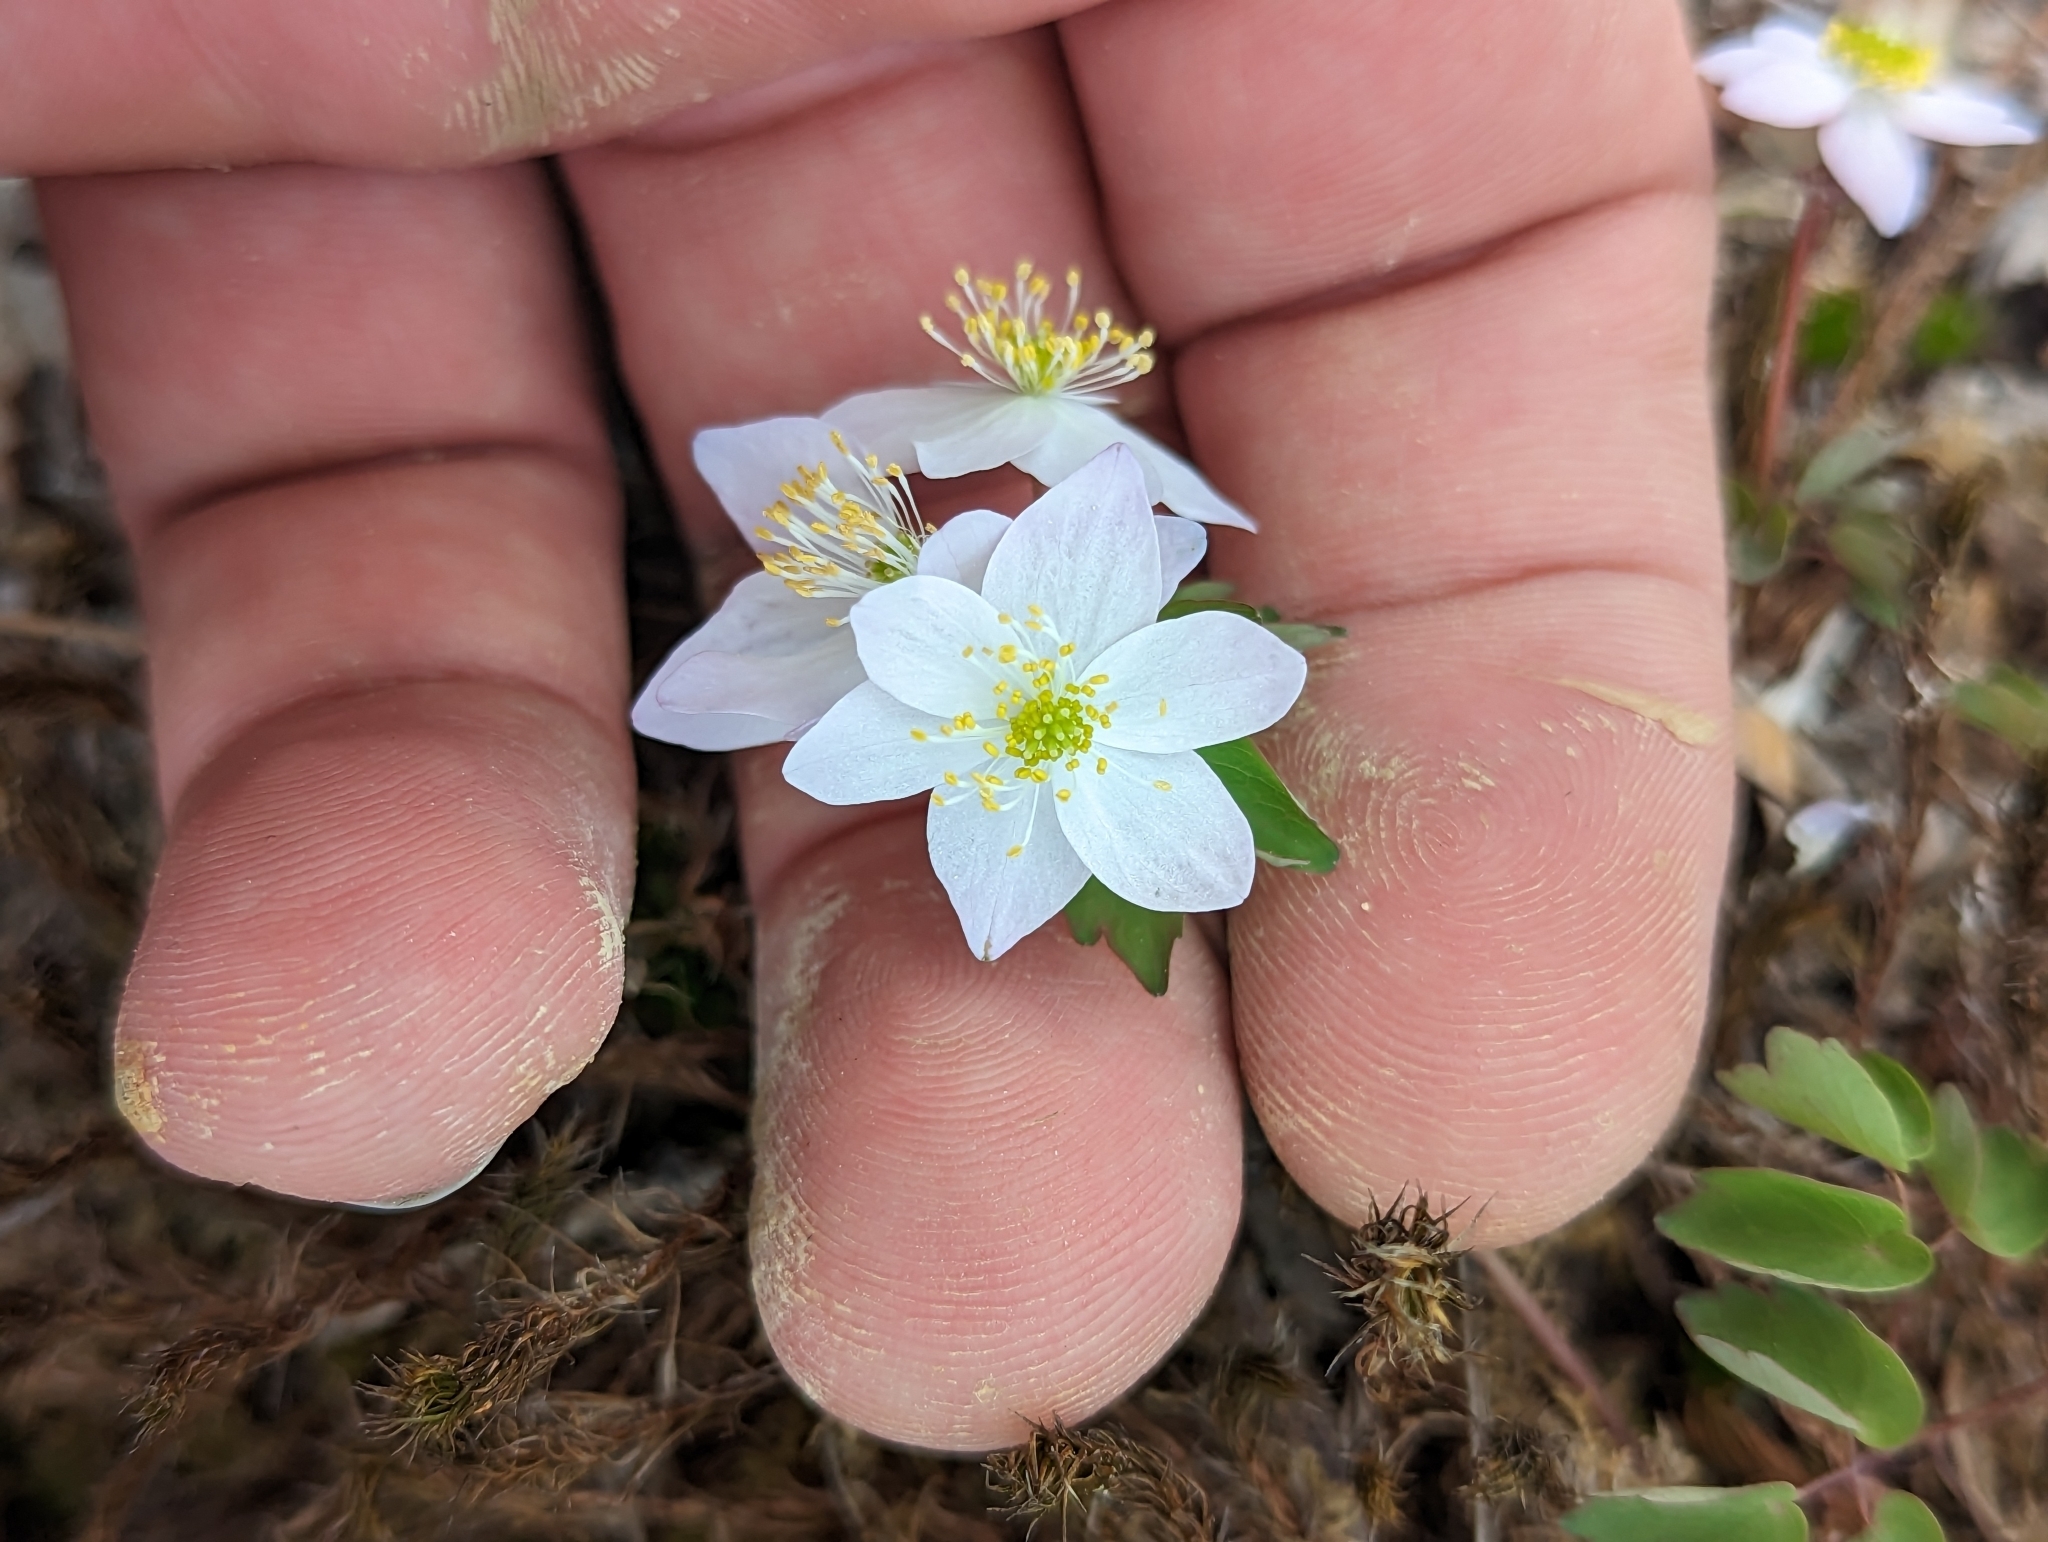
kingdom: Plantae
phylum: Tracheophyta
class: Magnoliopsida
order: Ranunculales
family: Ranunculaceae
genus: Thalictrum
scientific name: Thalictrum thalictroides
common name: Rue-anemone
